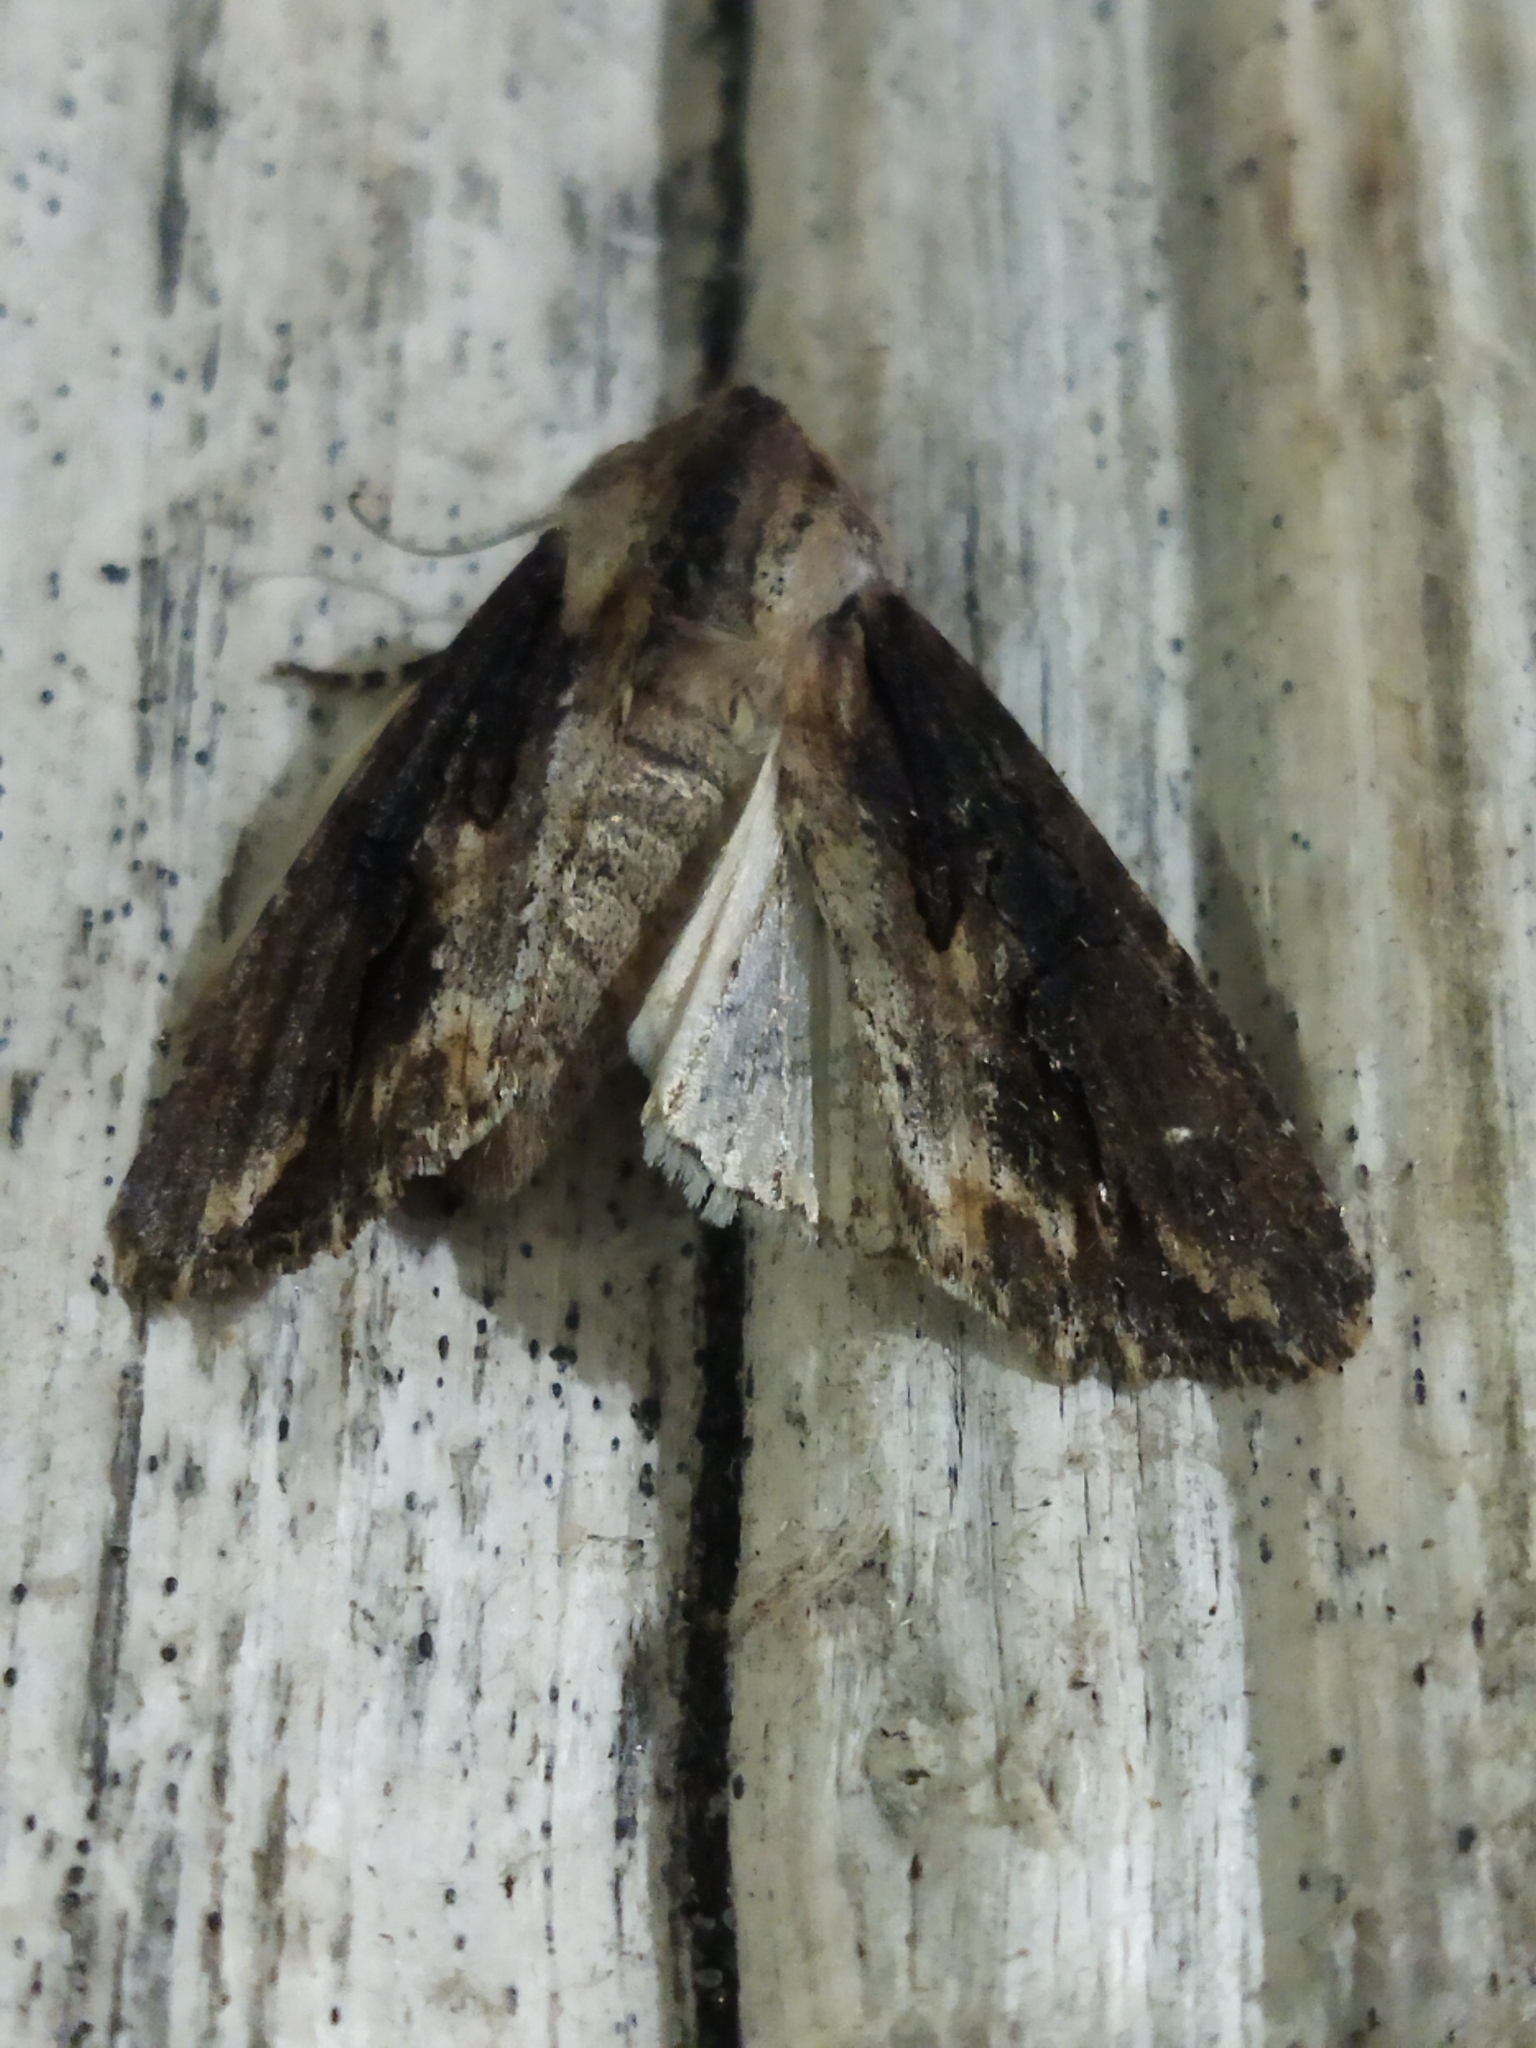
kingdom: Animalia
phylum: Arthropoda
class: Insecta
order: Lepidoptera
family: Noctuidae
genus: Egira
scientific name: Egira
